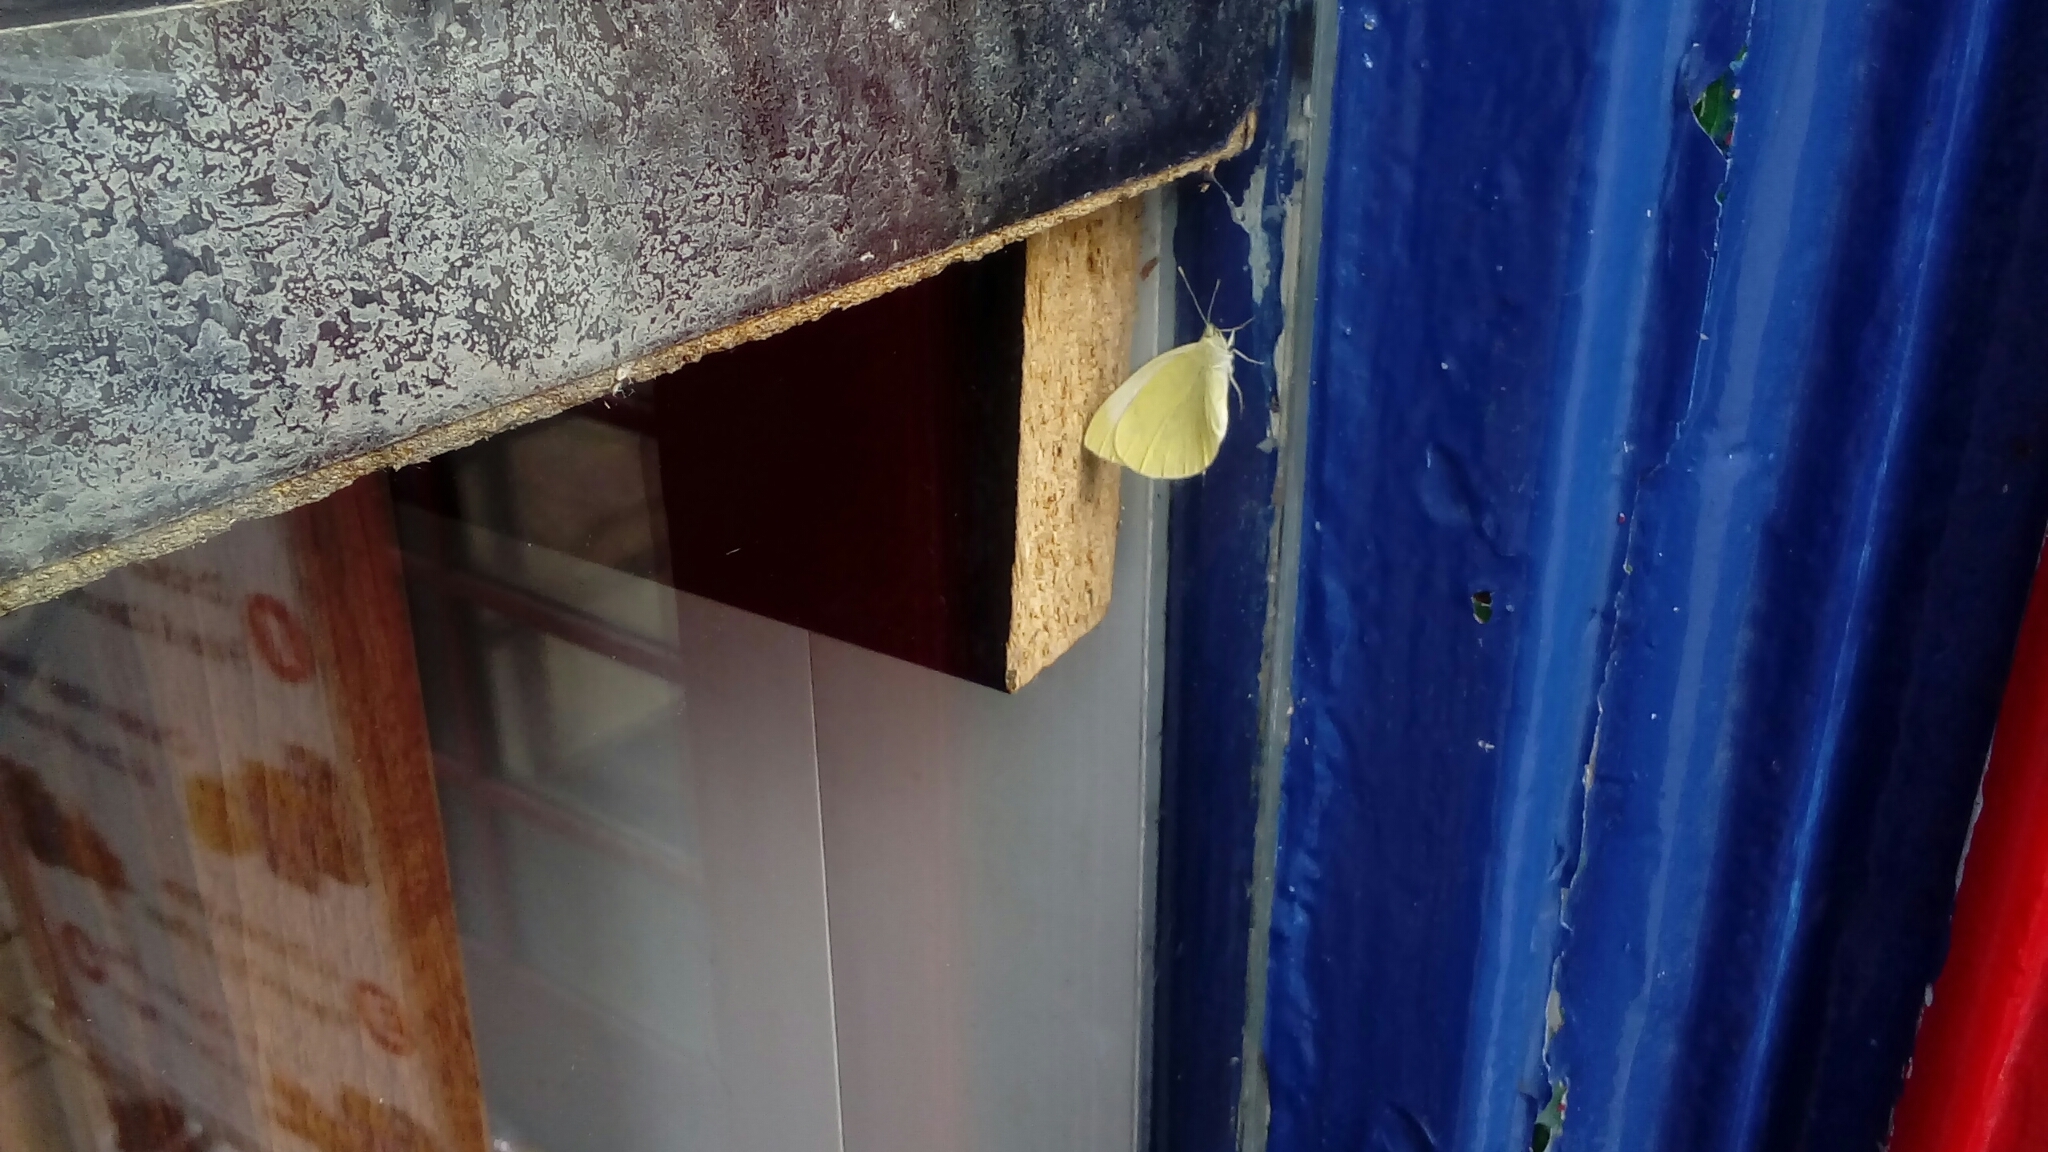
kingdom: Animalia
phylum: Arthropoda
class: Insecta
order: Lepidoptera
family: Pieridae
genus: Pieris
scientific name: Pieris
